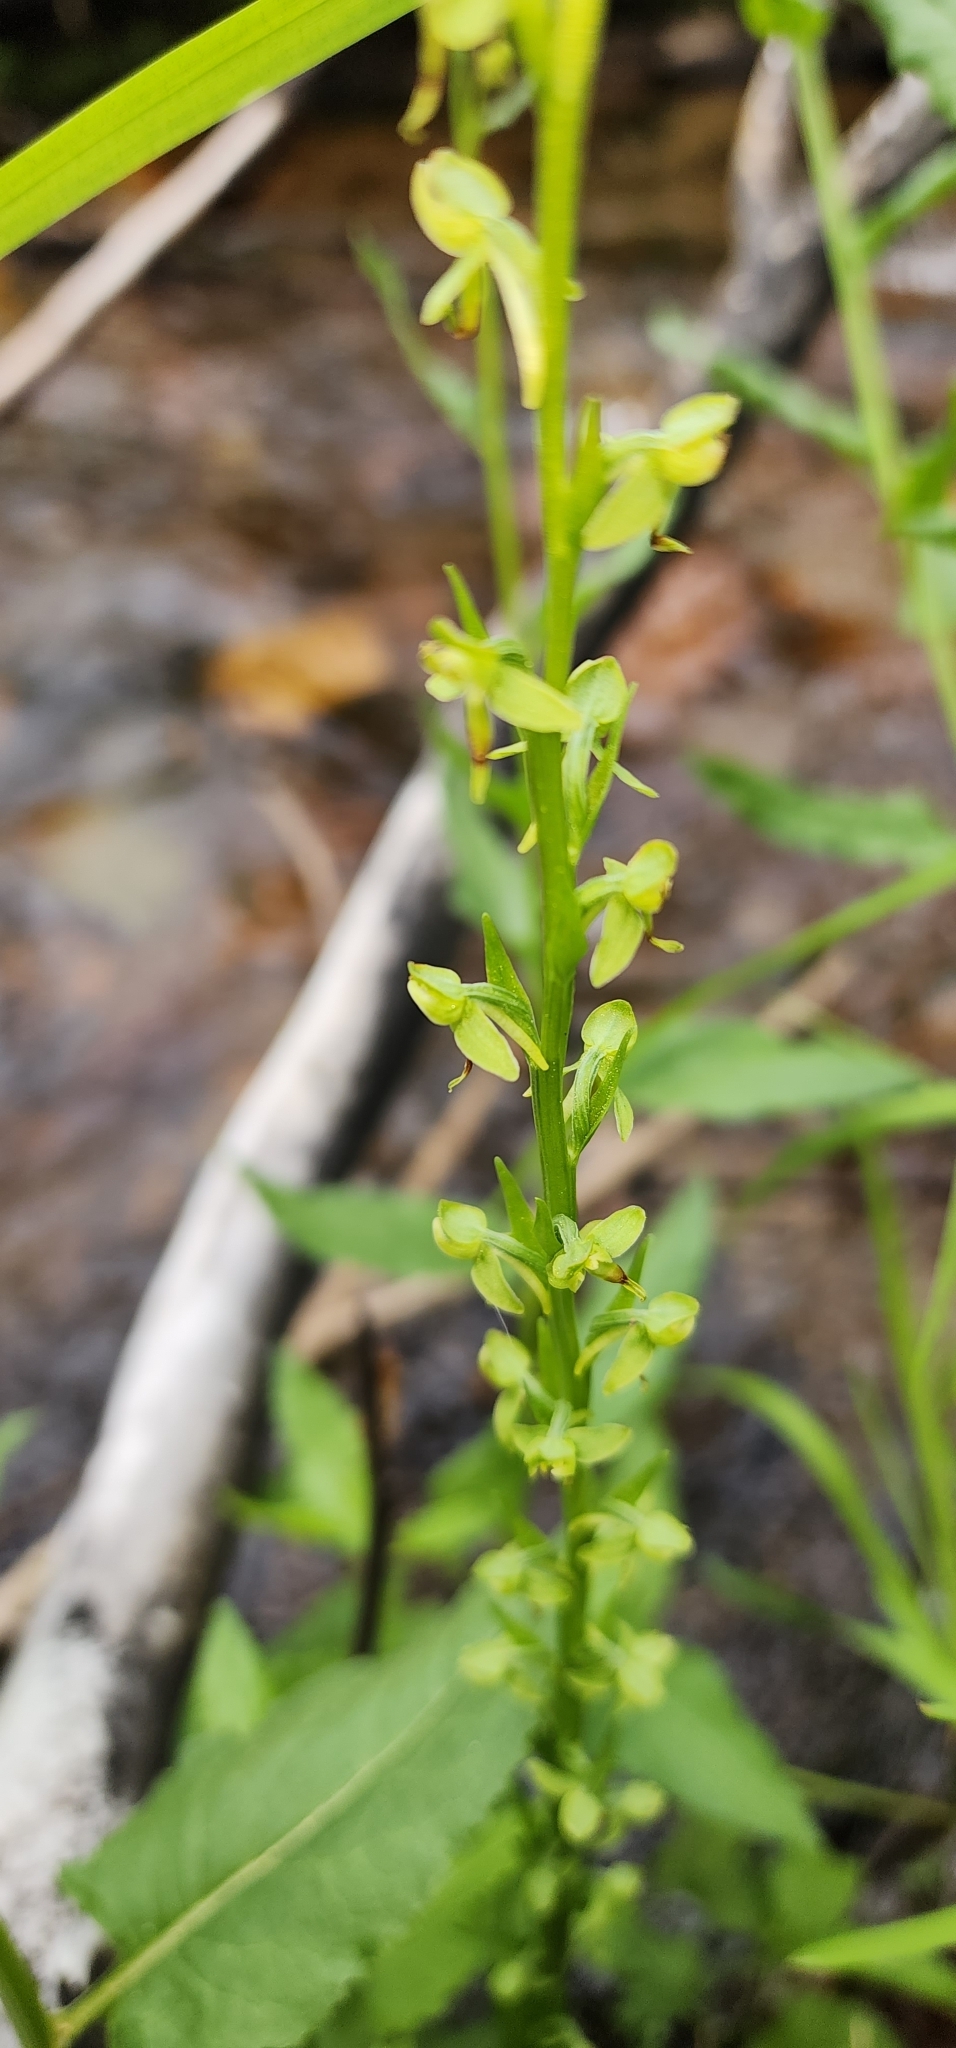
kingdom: Plantae
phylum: Tracheophyta
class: Liliopsida
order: Asparagales
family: Orchidaceae
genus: Platanthera
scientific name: Platanthera sparsiflora
